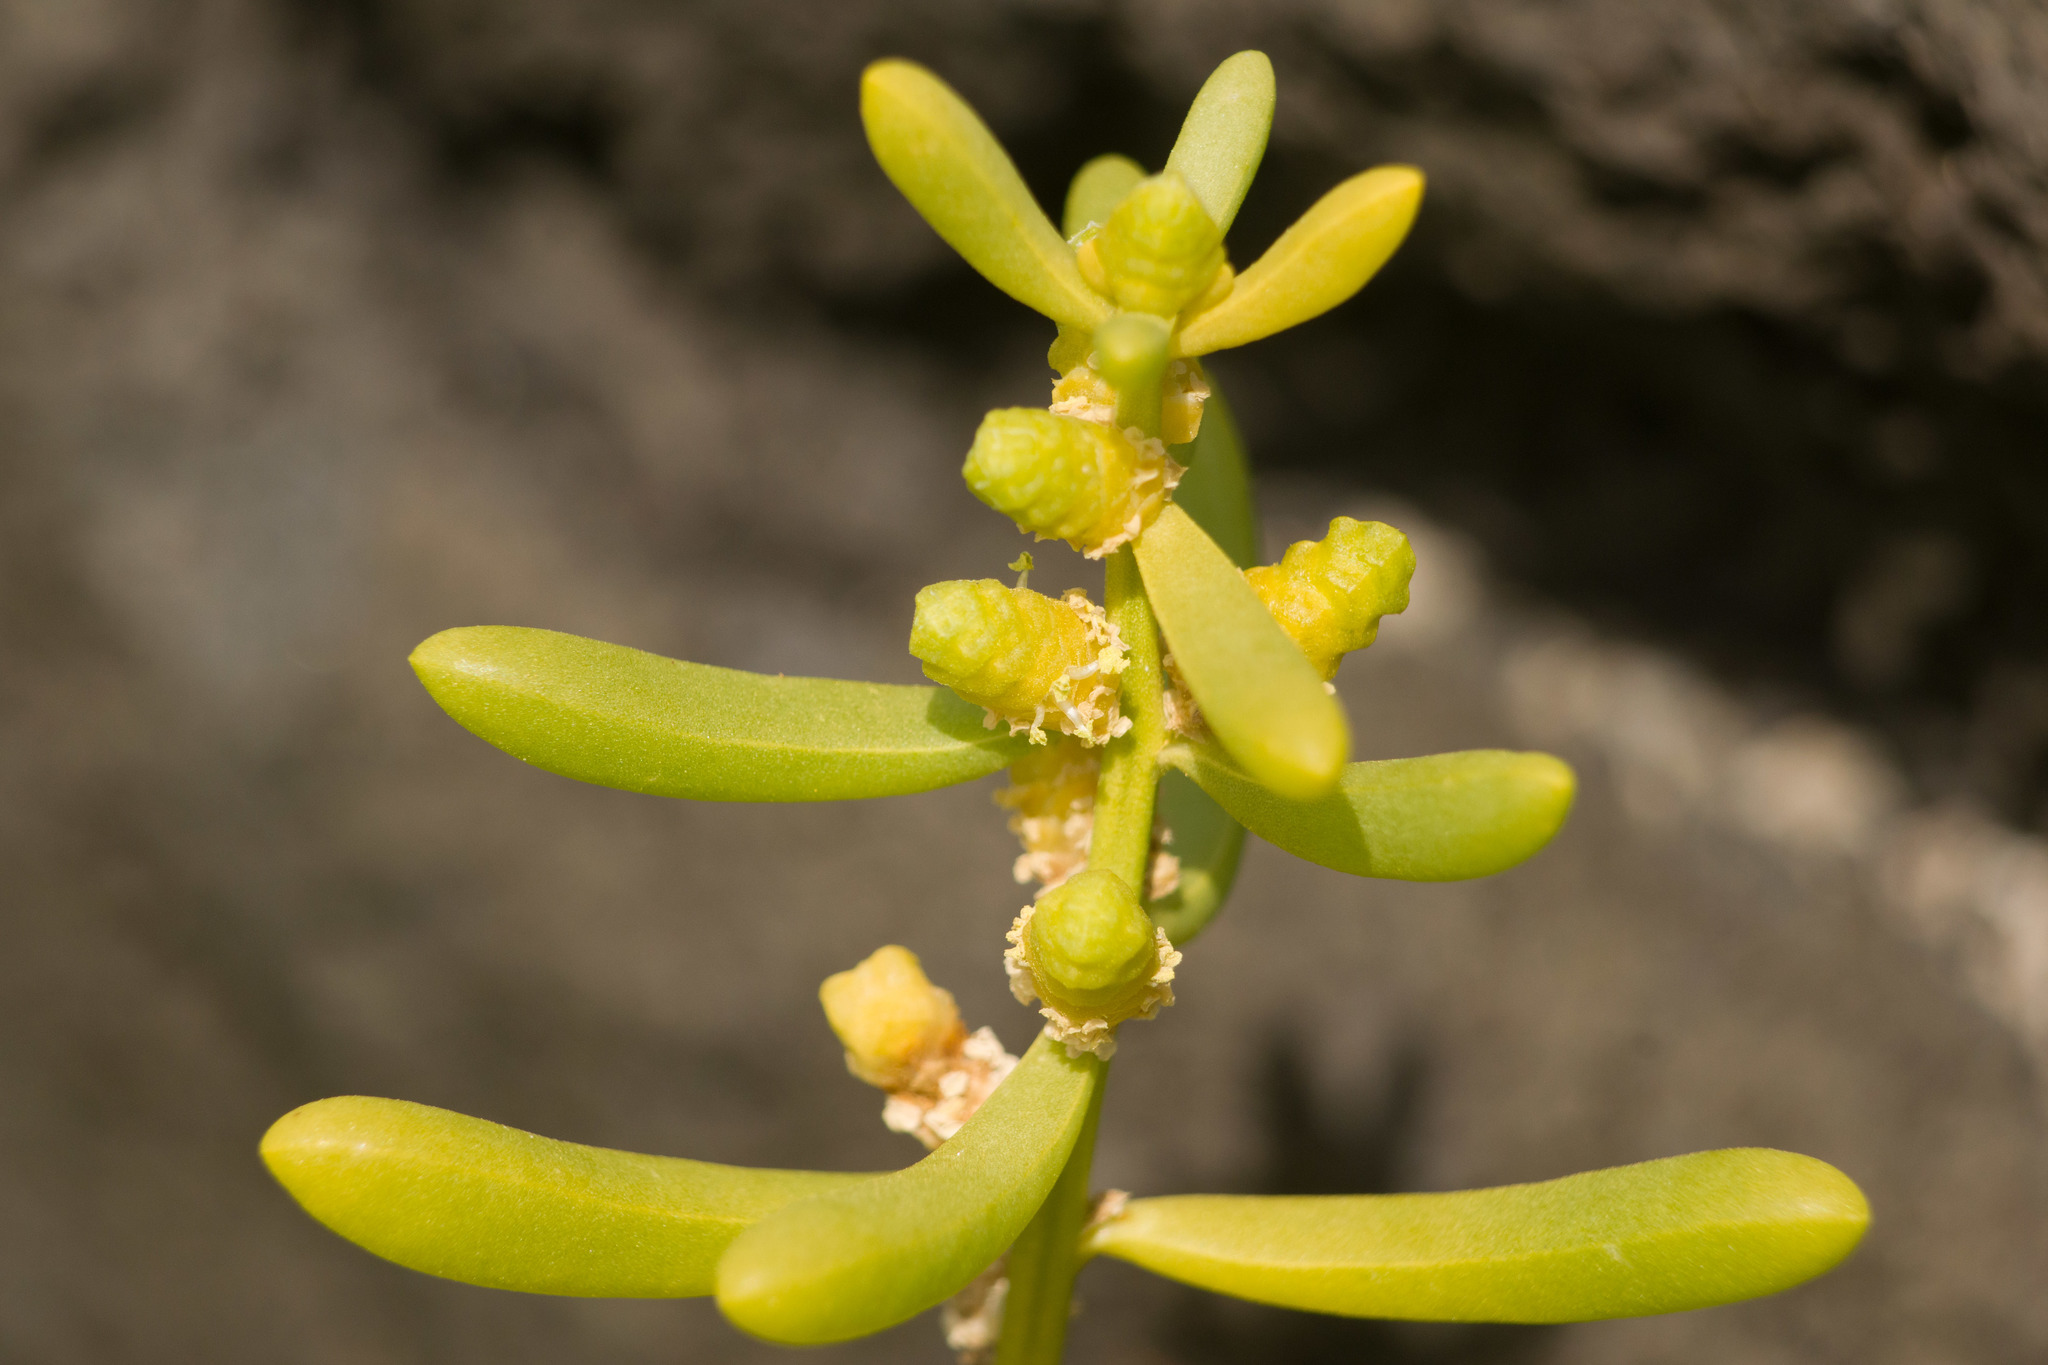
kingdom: Plantae
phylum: Tracheophyta
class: Magnoliopsida
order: Brassicales
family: Bataceae
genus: Batis
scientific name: Batis maritima
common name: Turtleweed
